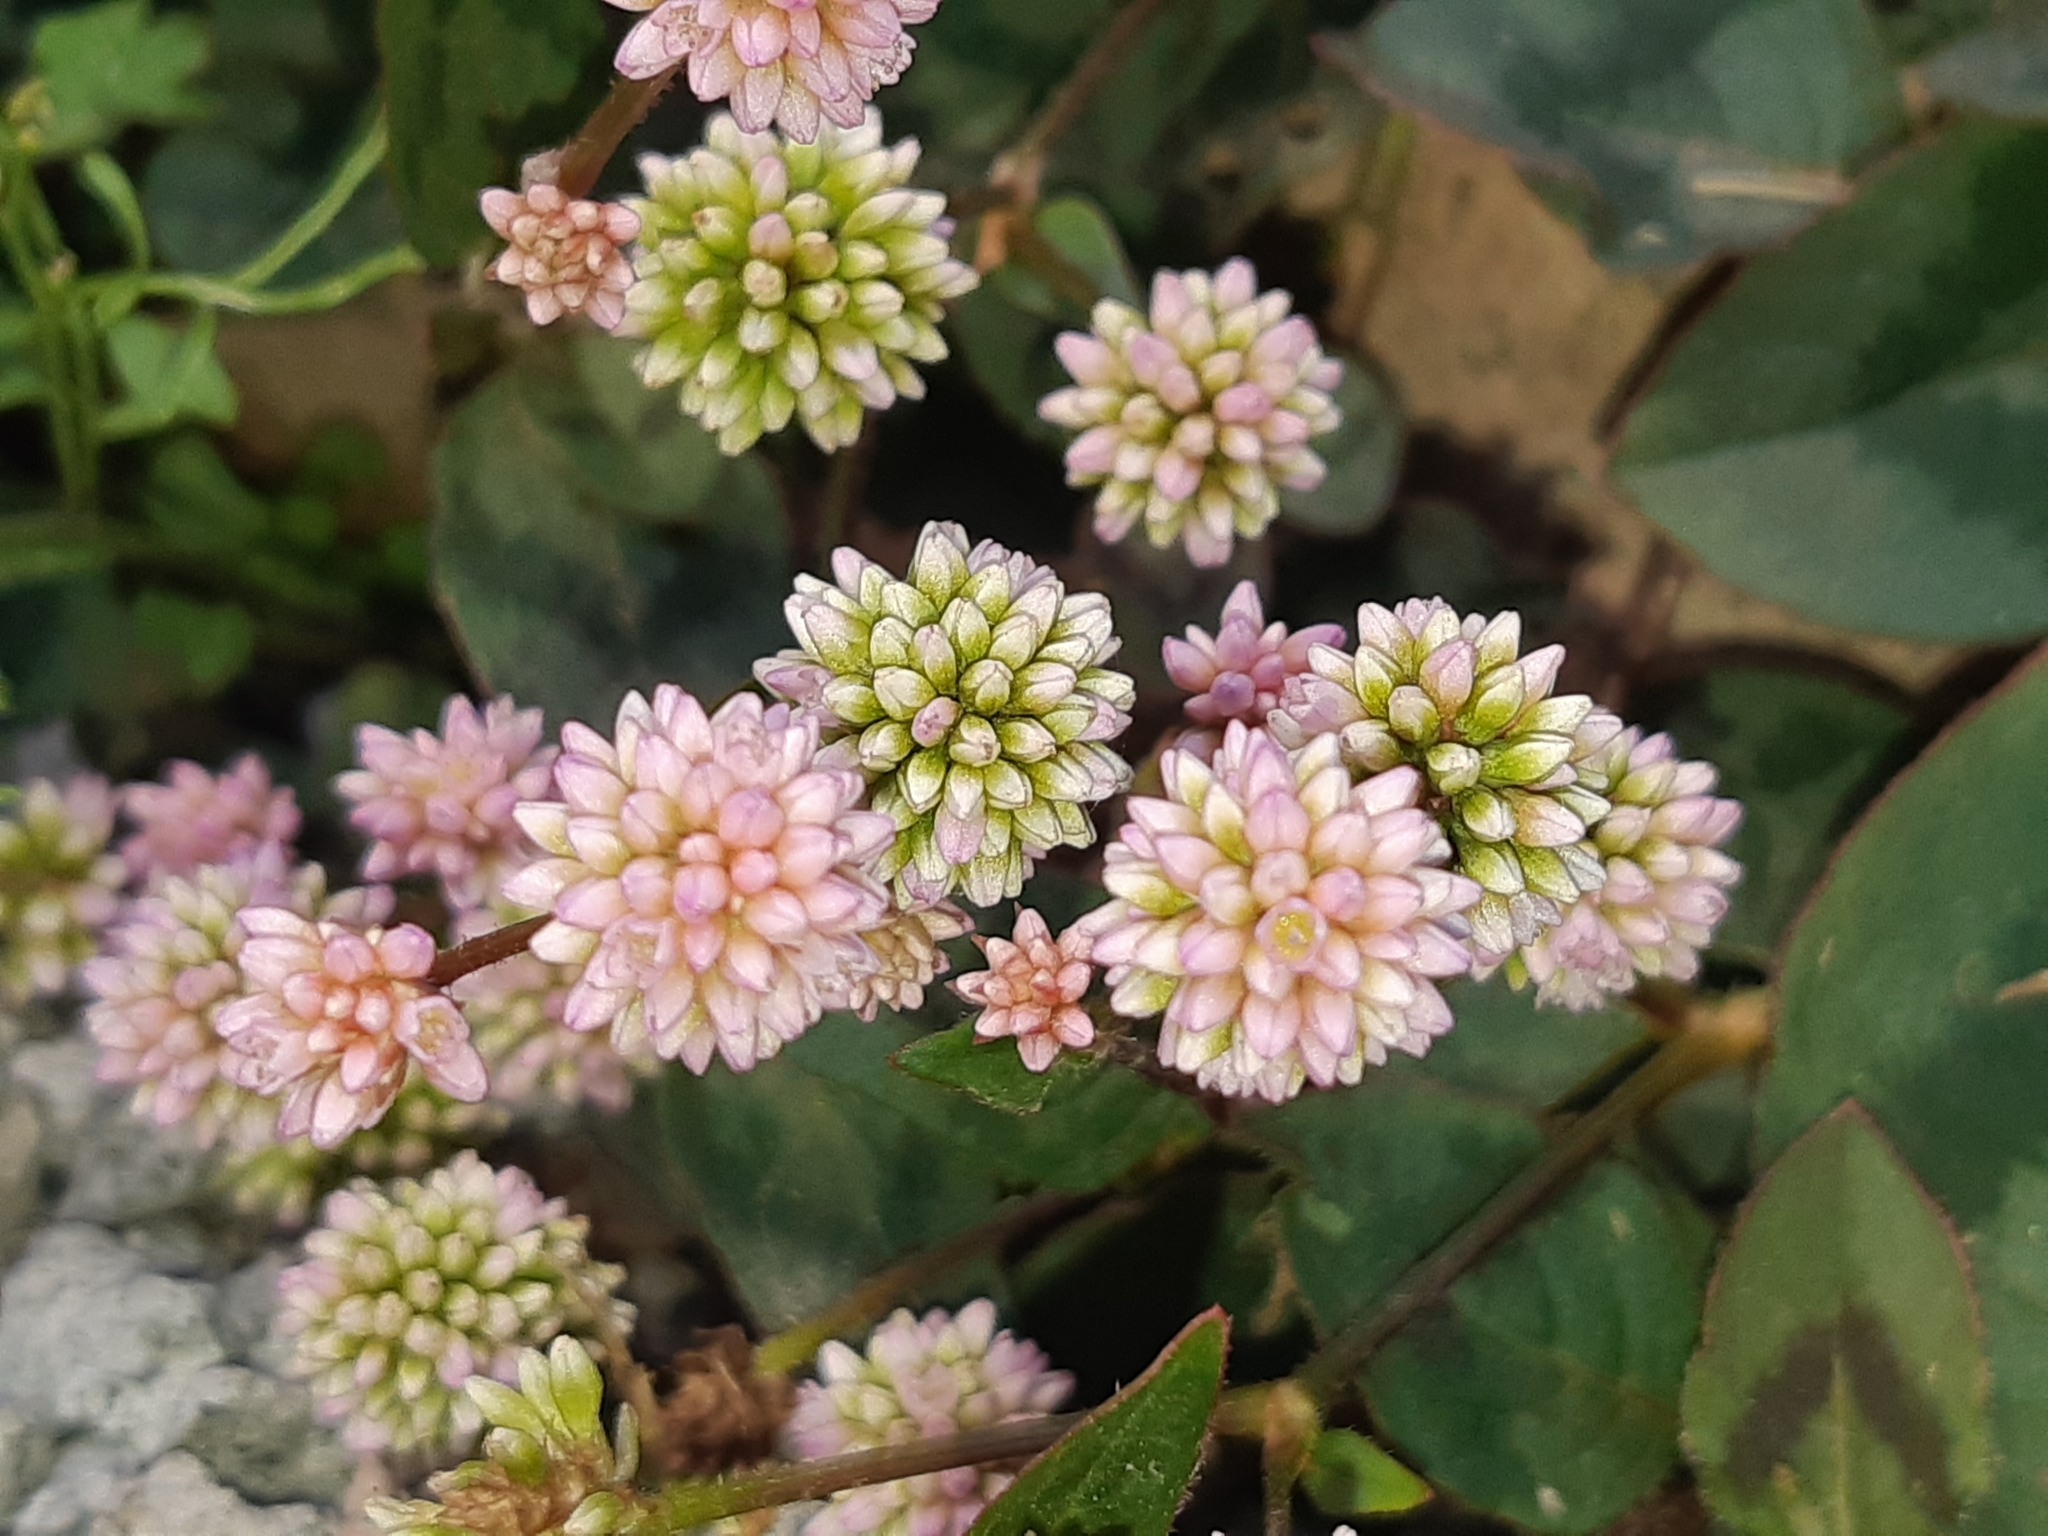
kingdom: Plantae
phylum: Tracheophyta
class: Magnoliopsida
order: Caryophyllales
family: Polygonaceae
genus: Persicaria
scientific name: Persicaria capitata
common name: Pinkhead smartweed
